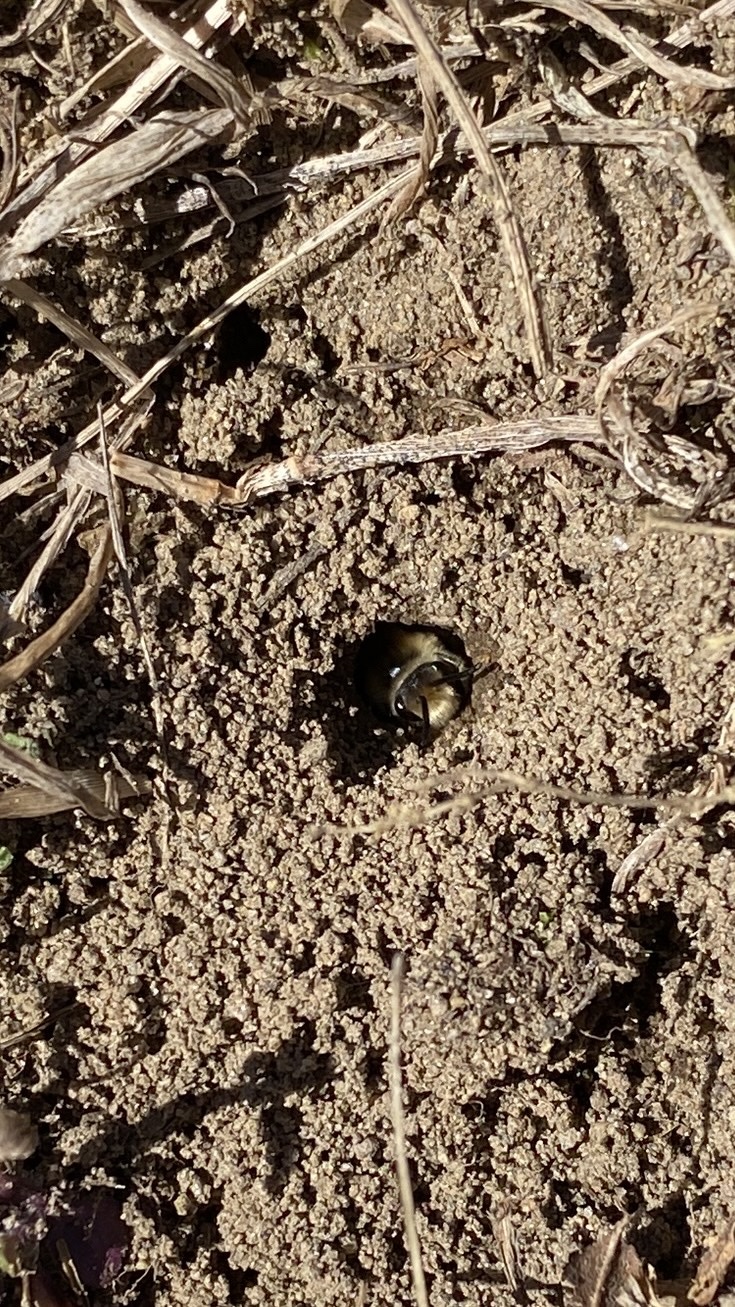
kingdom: Animalia
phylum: Arthropoda
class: Insecta
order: Hymenoptera
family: Colletidae
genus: Colletes
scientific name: Colletes inaequalis
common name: Unequal cellophane bee
